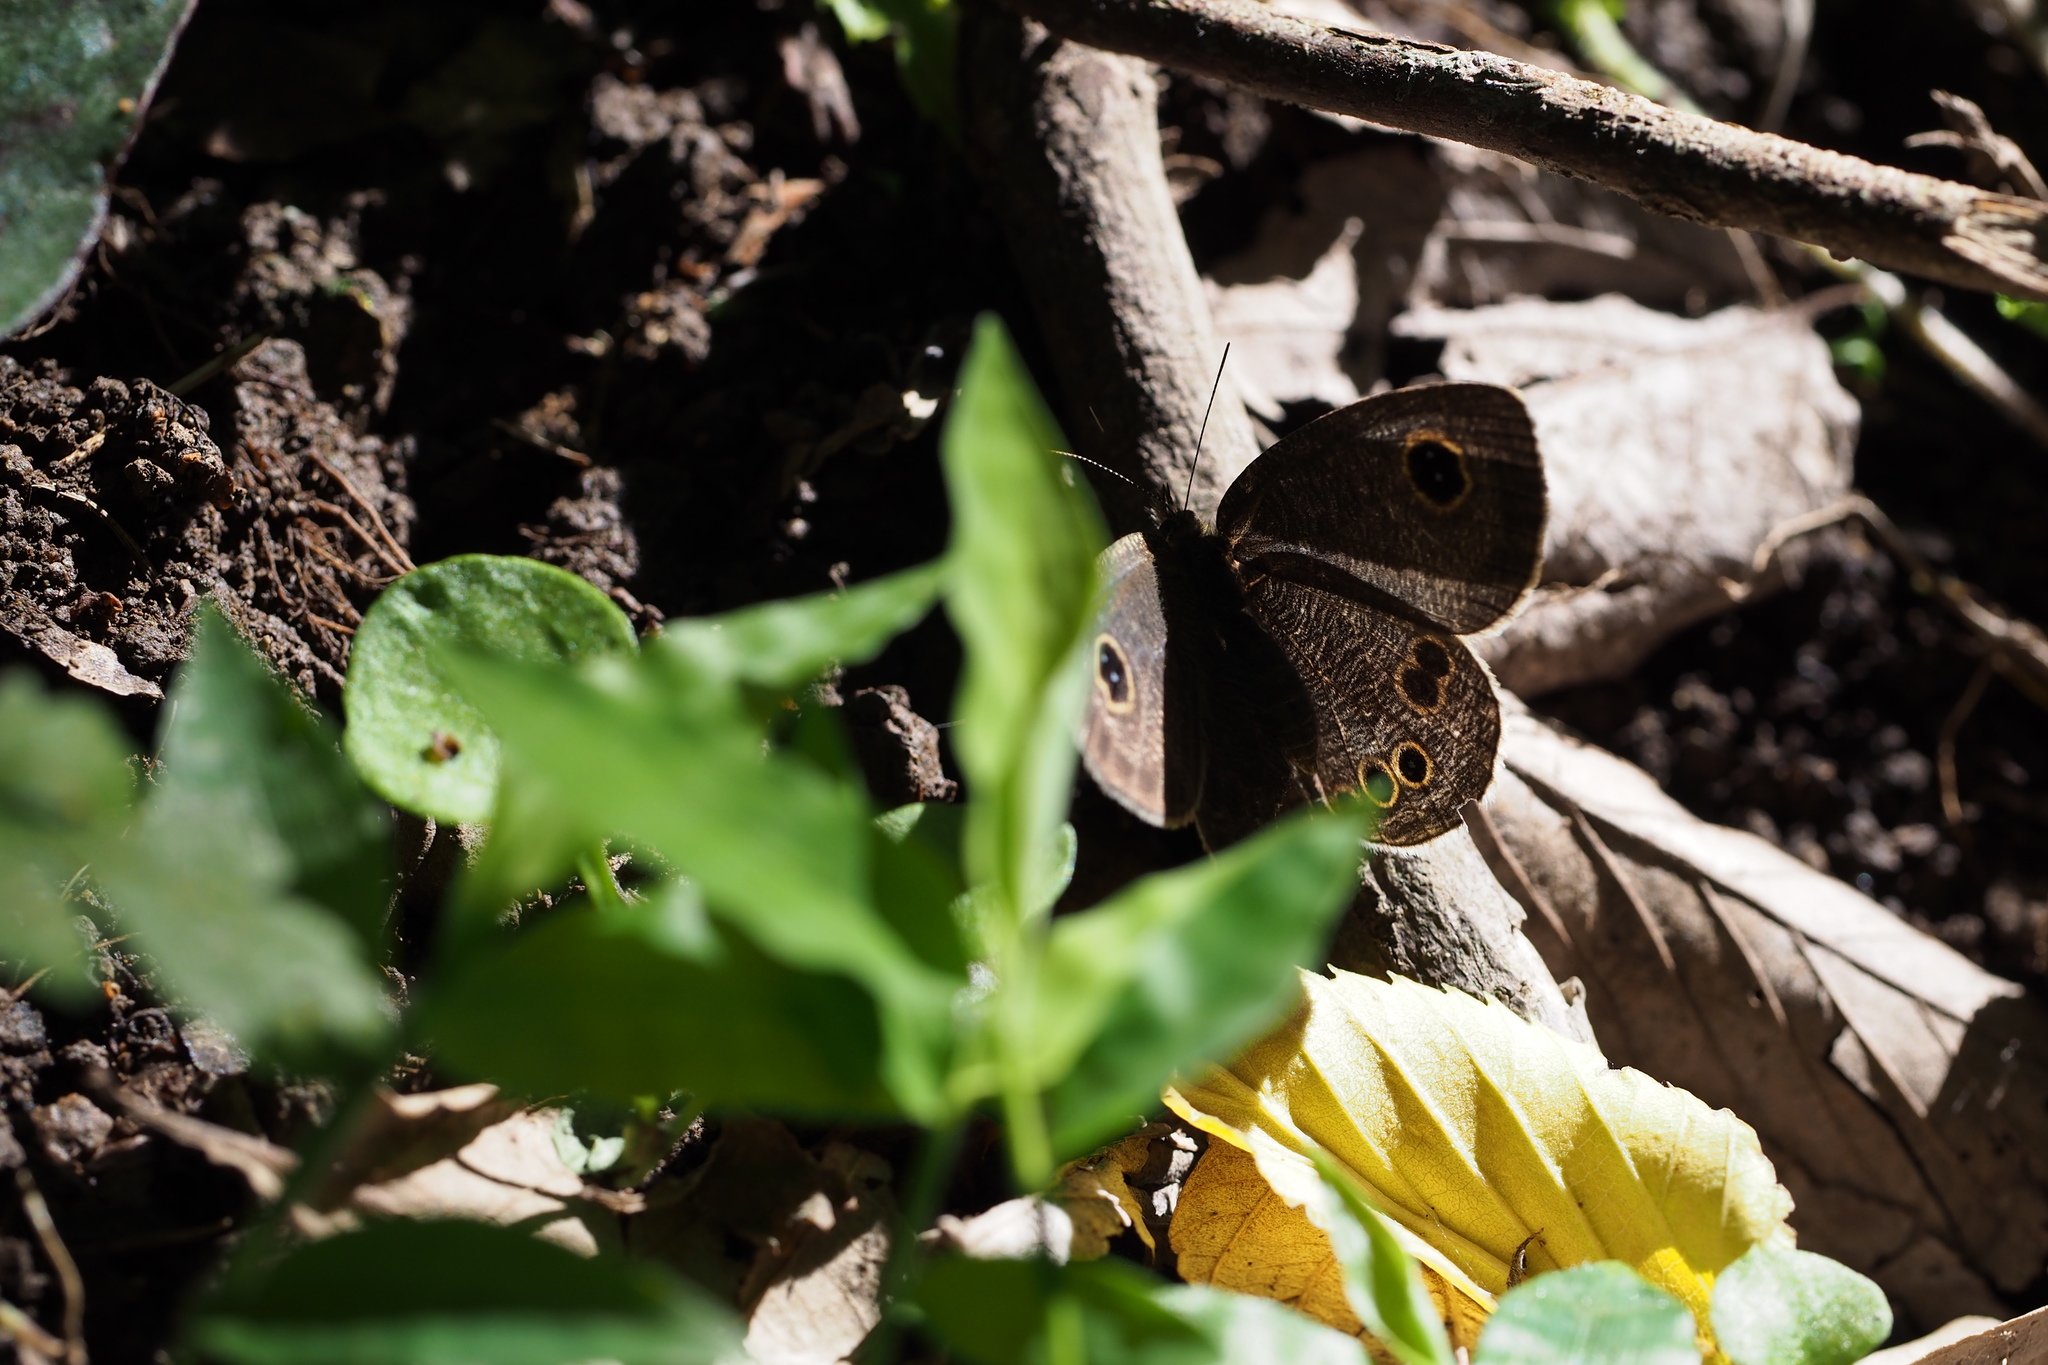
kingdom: Animalia
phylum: Arthropoda
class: Insecta
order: Lepidoptera
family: Nymphalidae
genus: Ypthima
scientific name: Ypthima argus
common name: Common fivering
